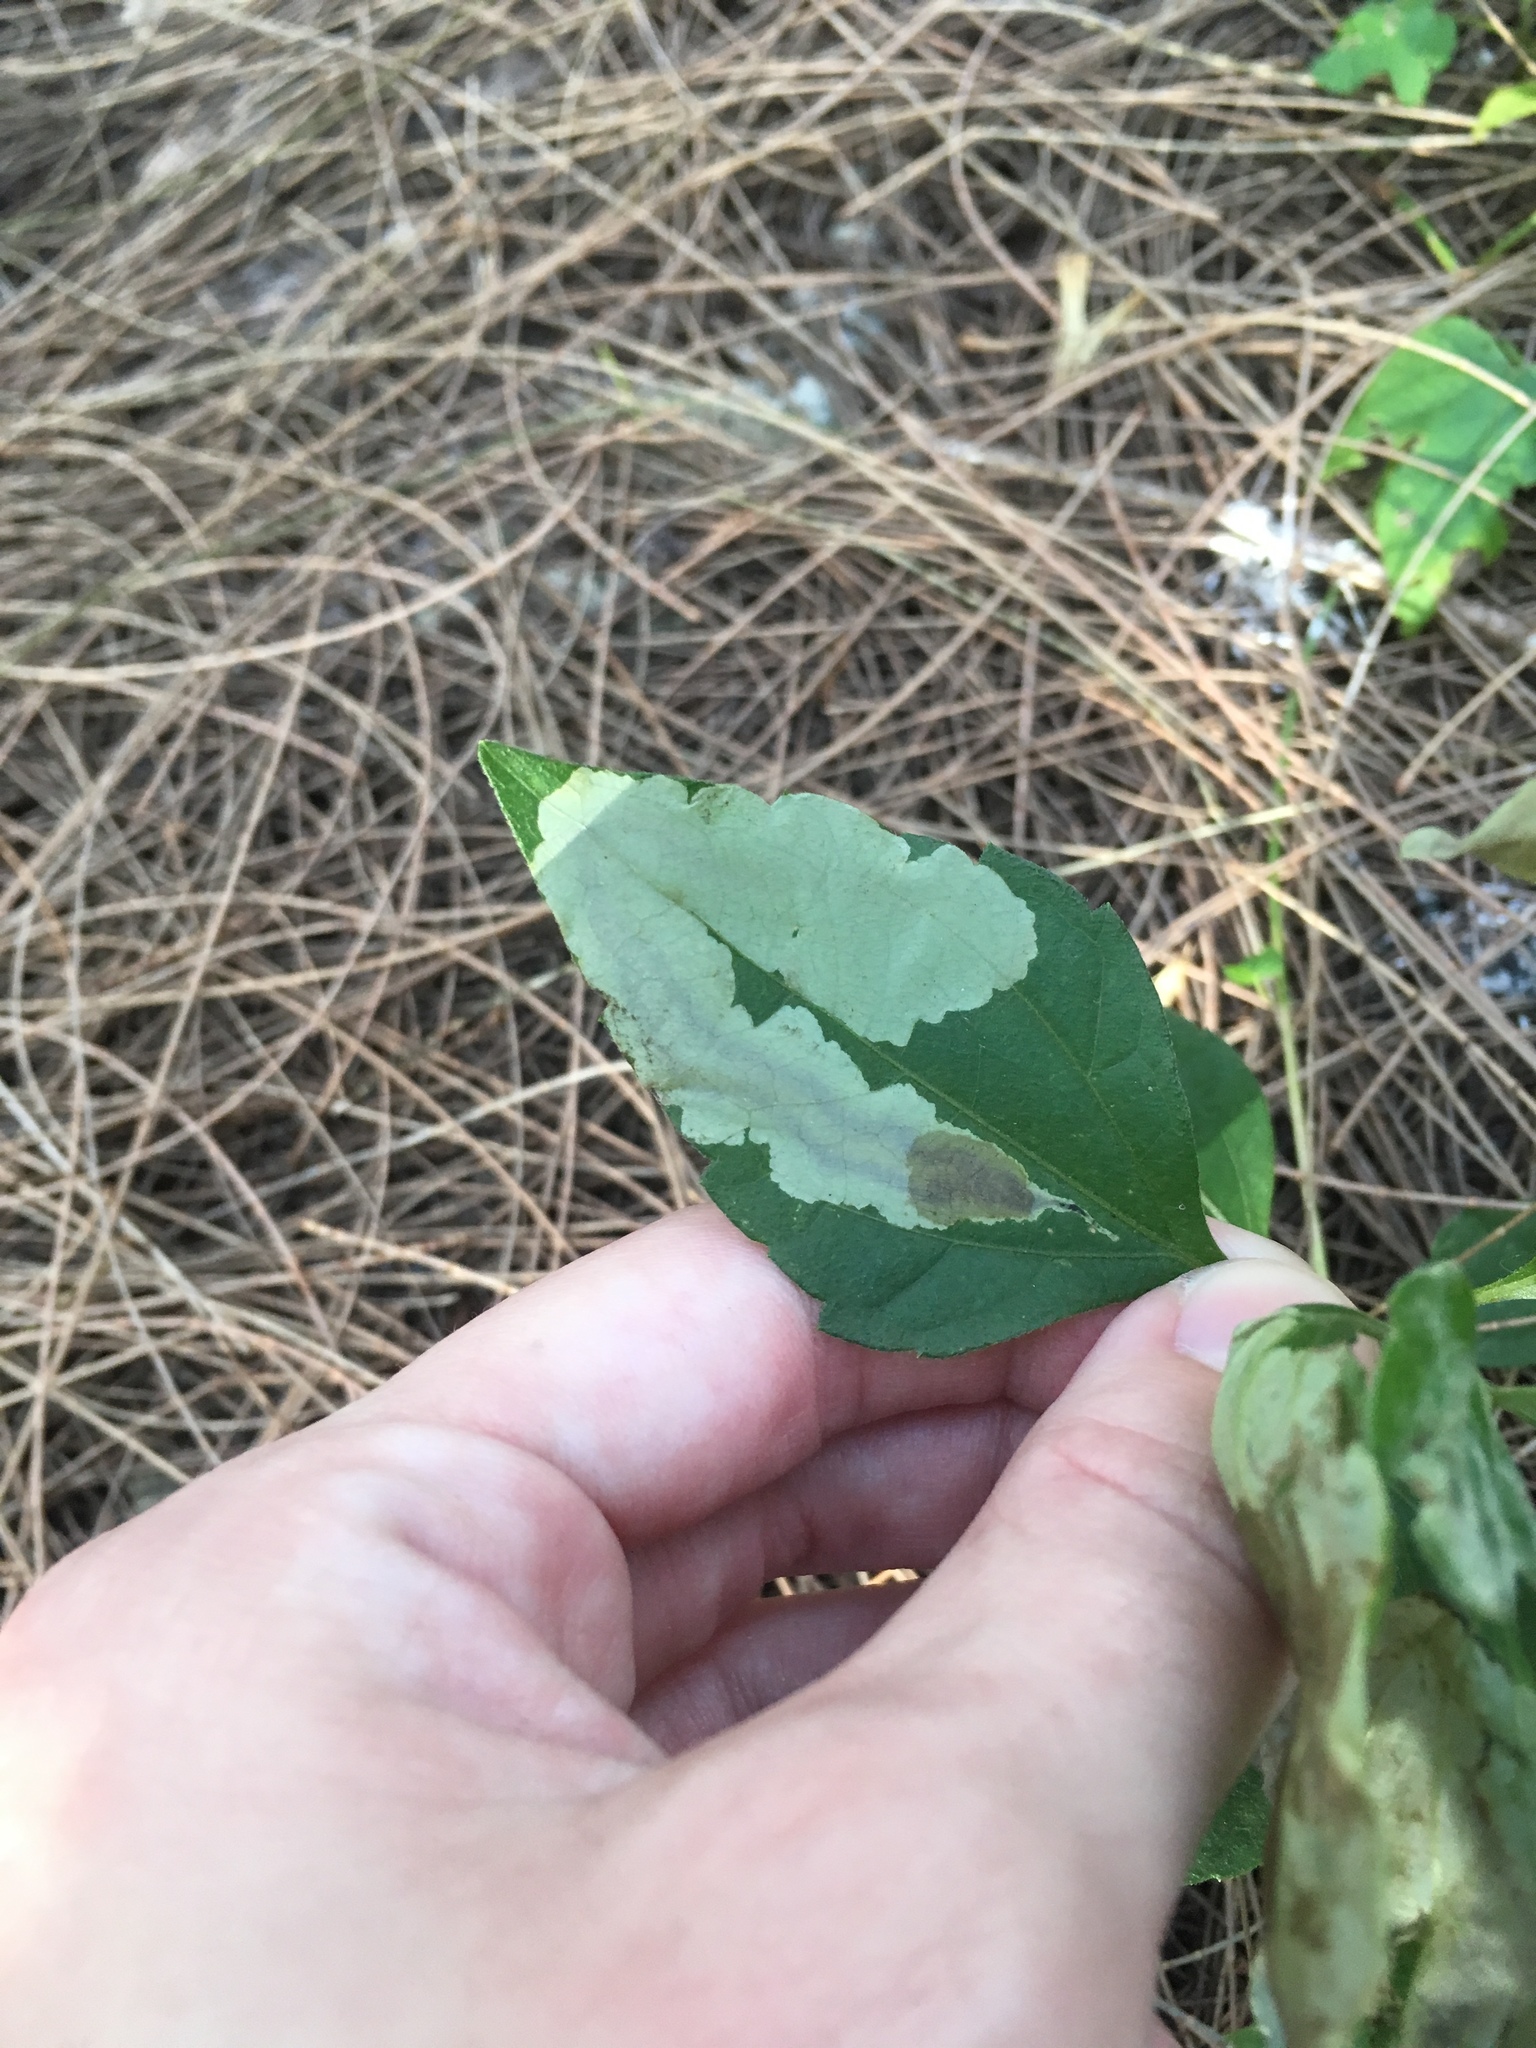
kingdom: Plantae
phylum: Tracheophyta
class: Magnoliopsida
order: Asterales
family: Asteraceae
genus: Chromolaena
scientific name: Chromolaena odorata
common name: Siamweed
